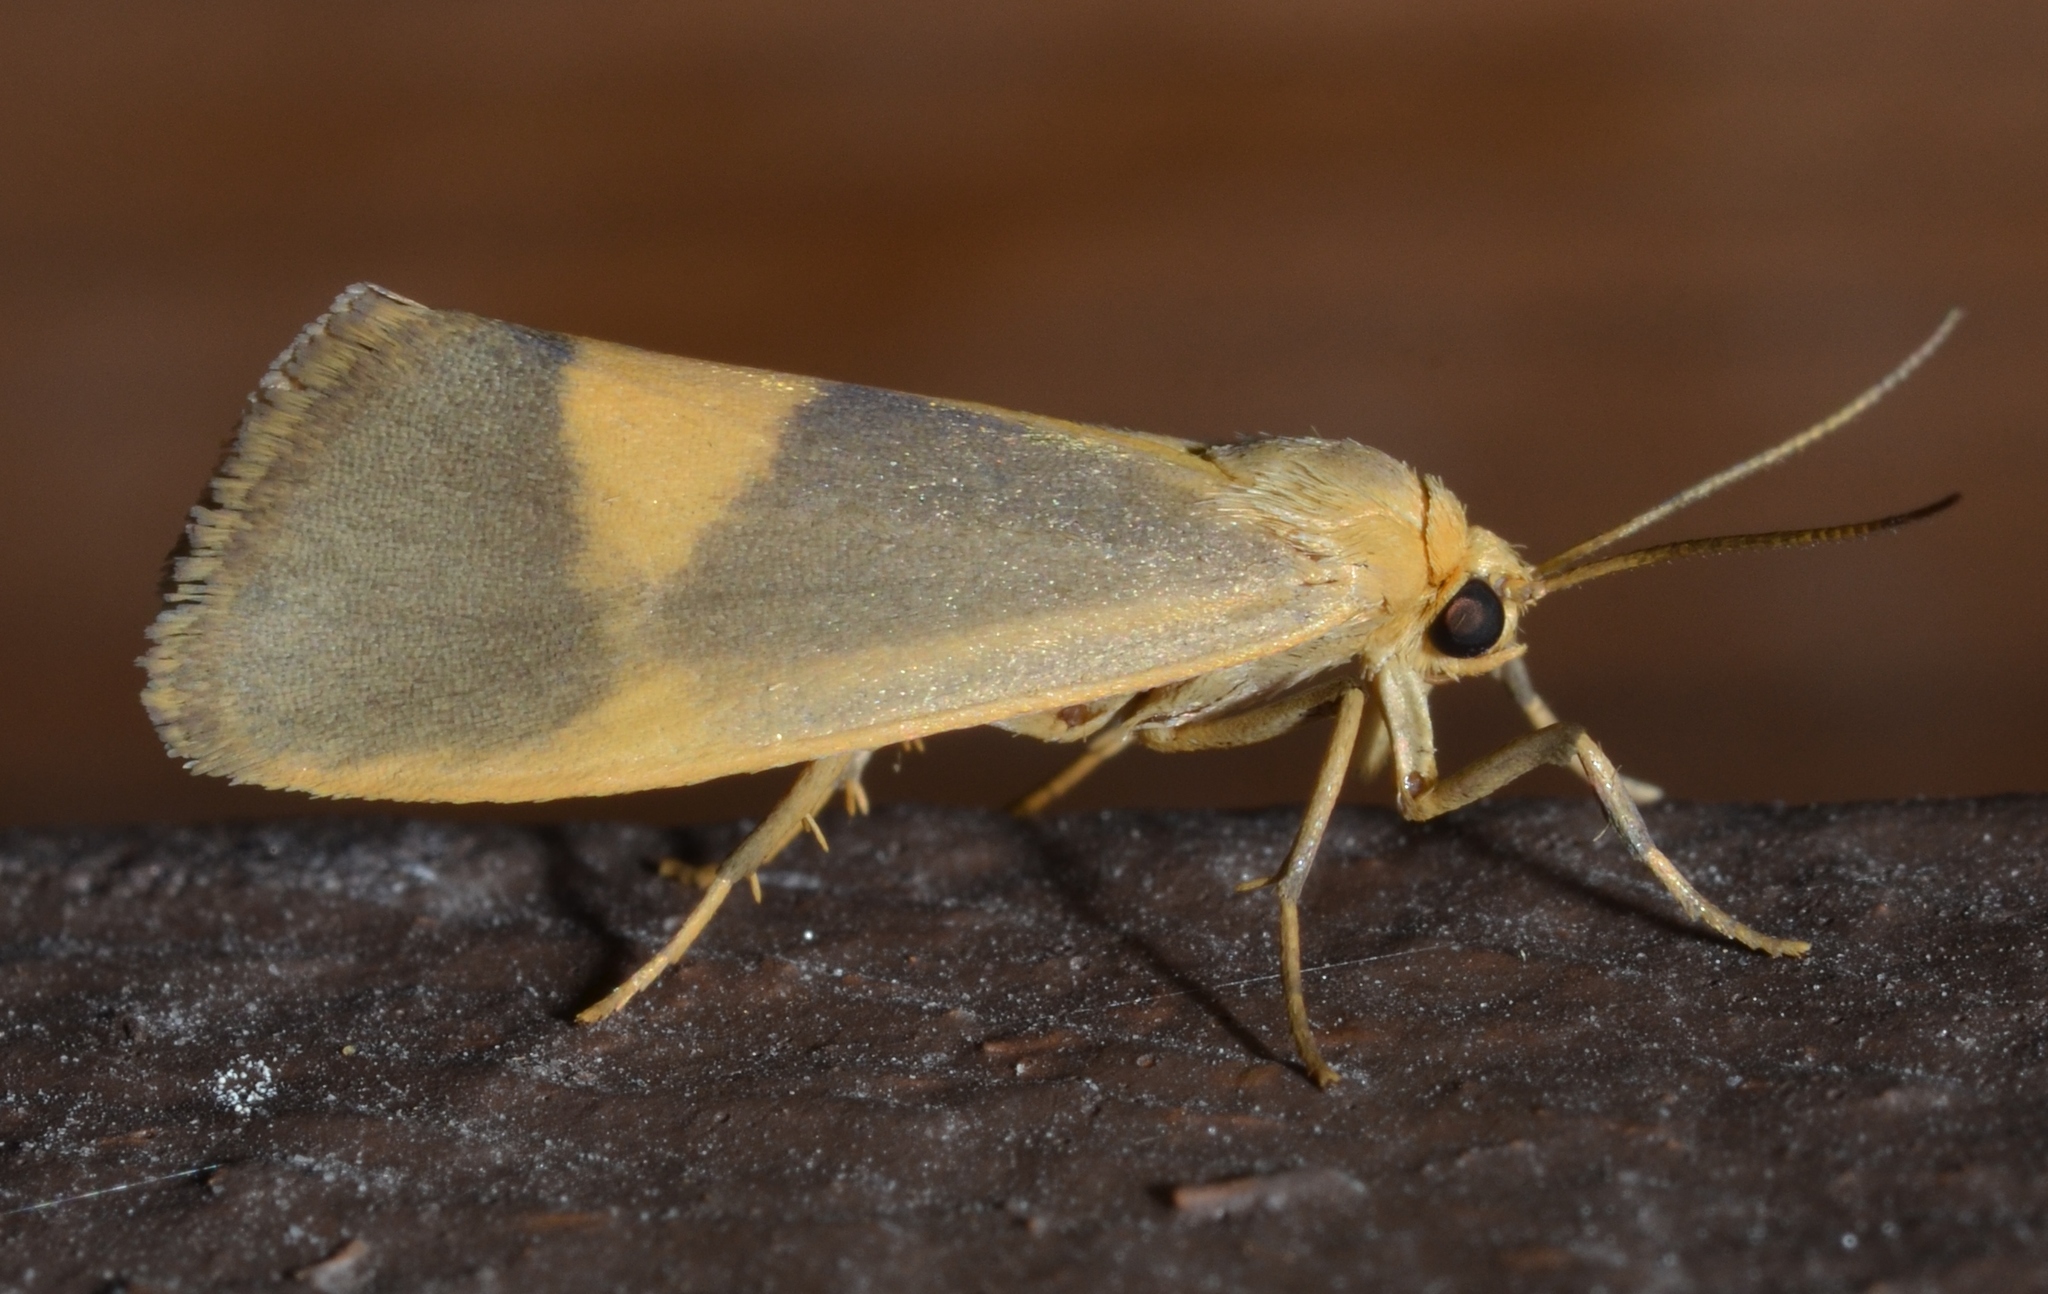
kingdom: Animalia
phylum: Arthropoda
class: Insecta
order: Lepidoptera
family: Erebidae
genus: Cisthene
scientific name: Cisthene plumbea
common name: Lead colored lichen moth
